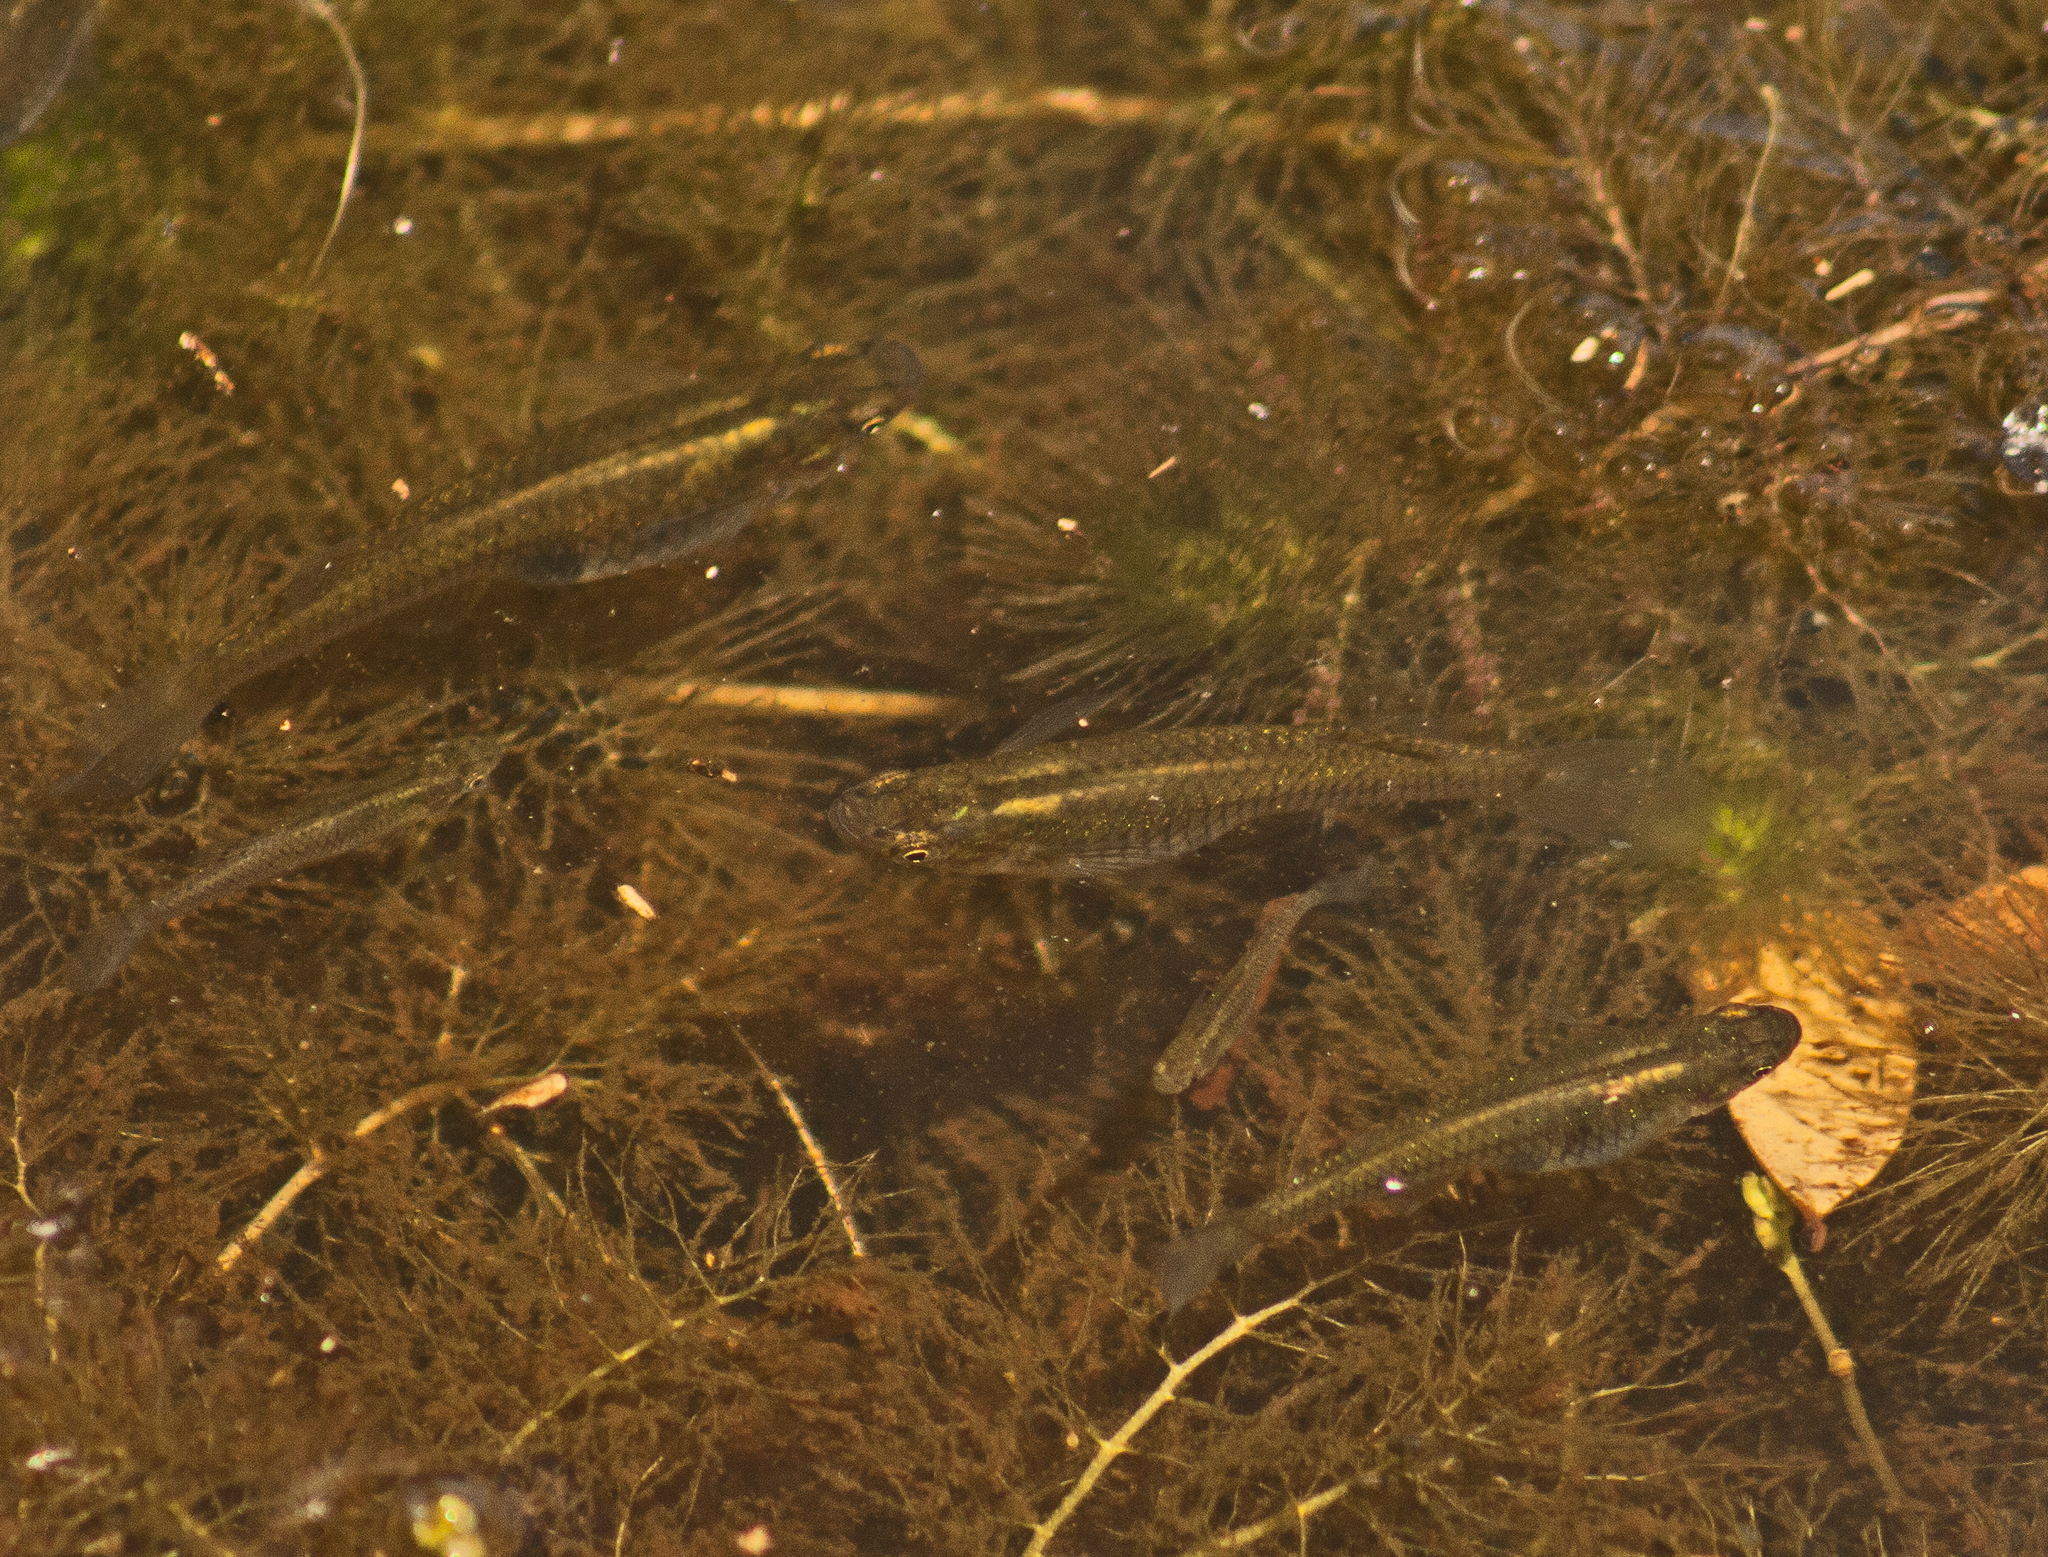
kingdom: Animalia
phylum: Chordata
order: Cyprinodontiformes
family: Poeciliidae
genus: Gambusia
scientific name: Gambusia holbrooki
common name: Eastern mosquitofish
